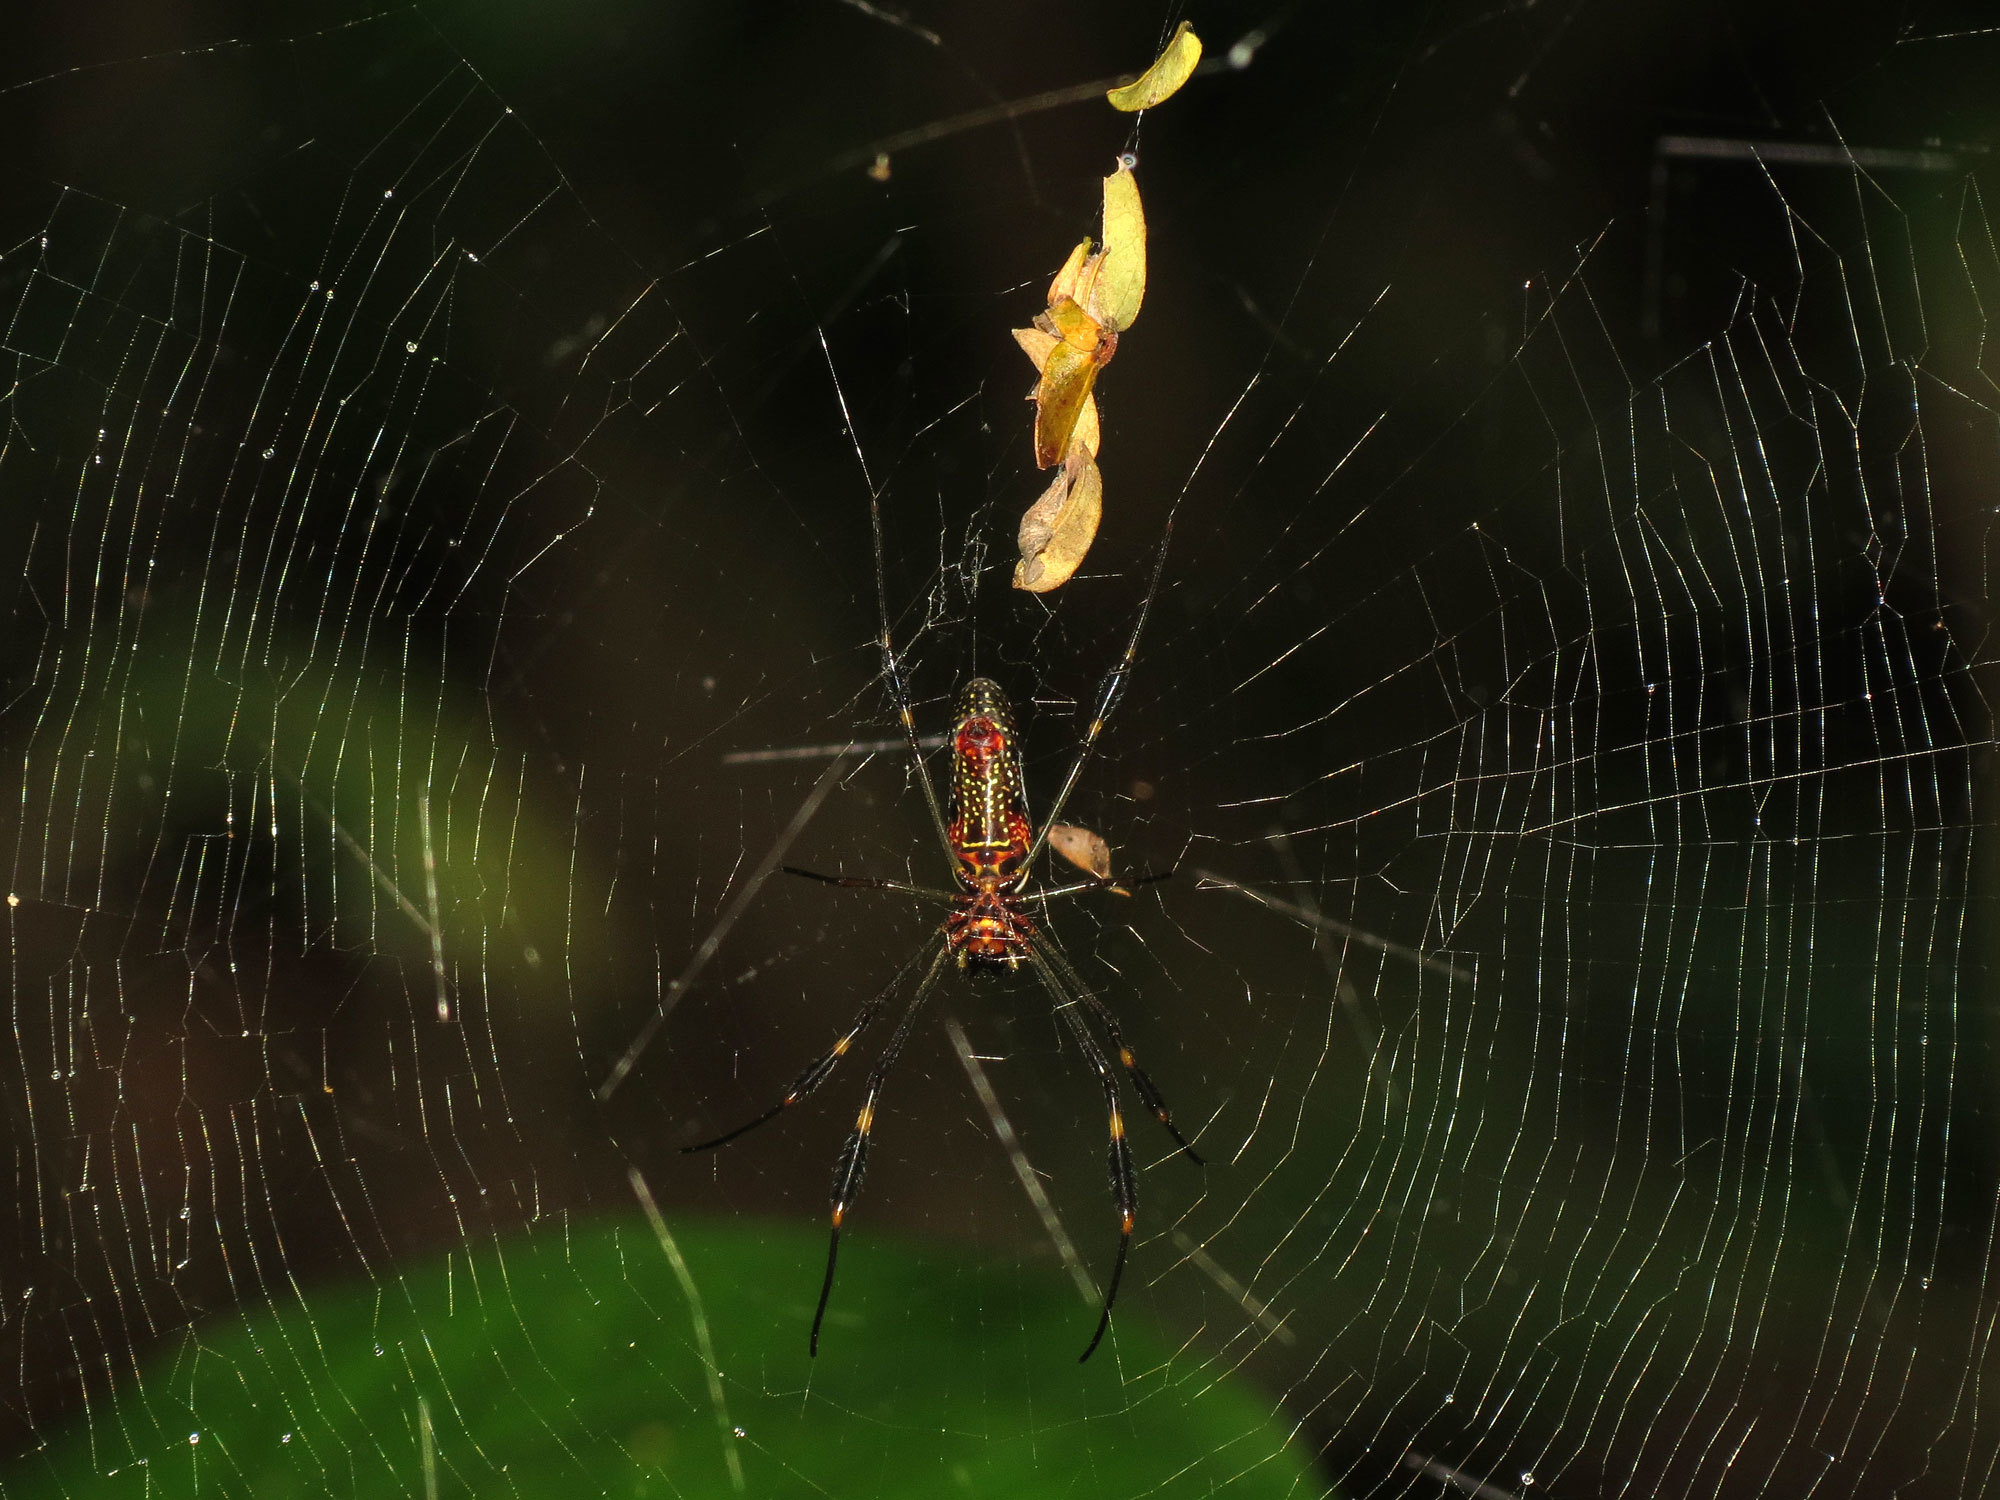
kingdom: Animalia
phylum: Arthropoda
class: Arachnida
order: Araneae
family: Araneidae
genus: Trichonephila
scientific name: Trichonephila clavipes
